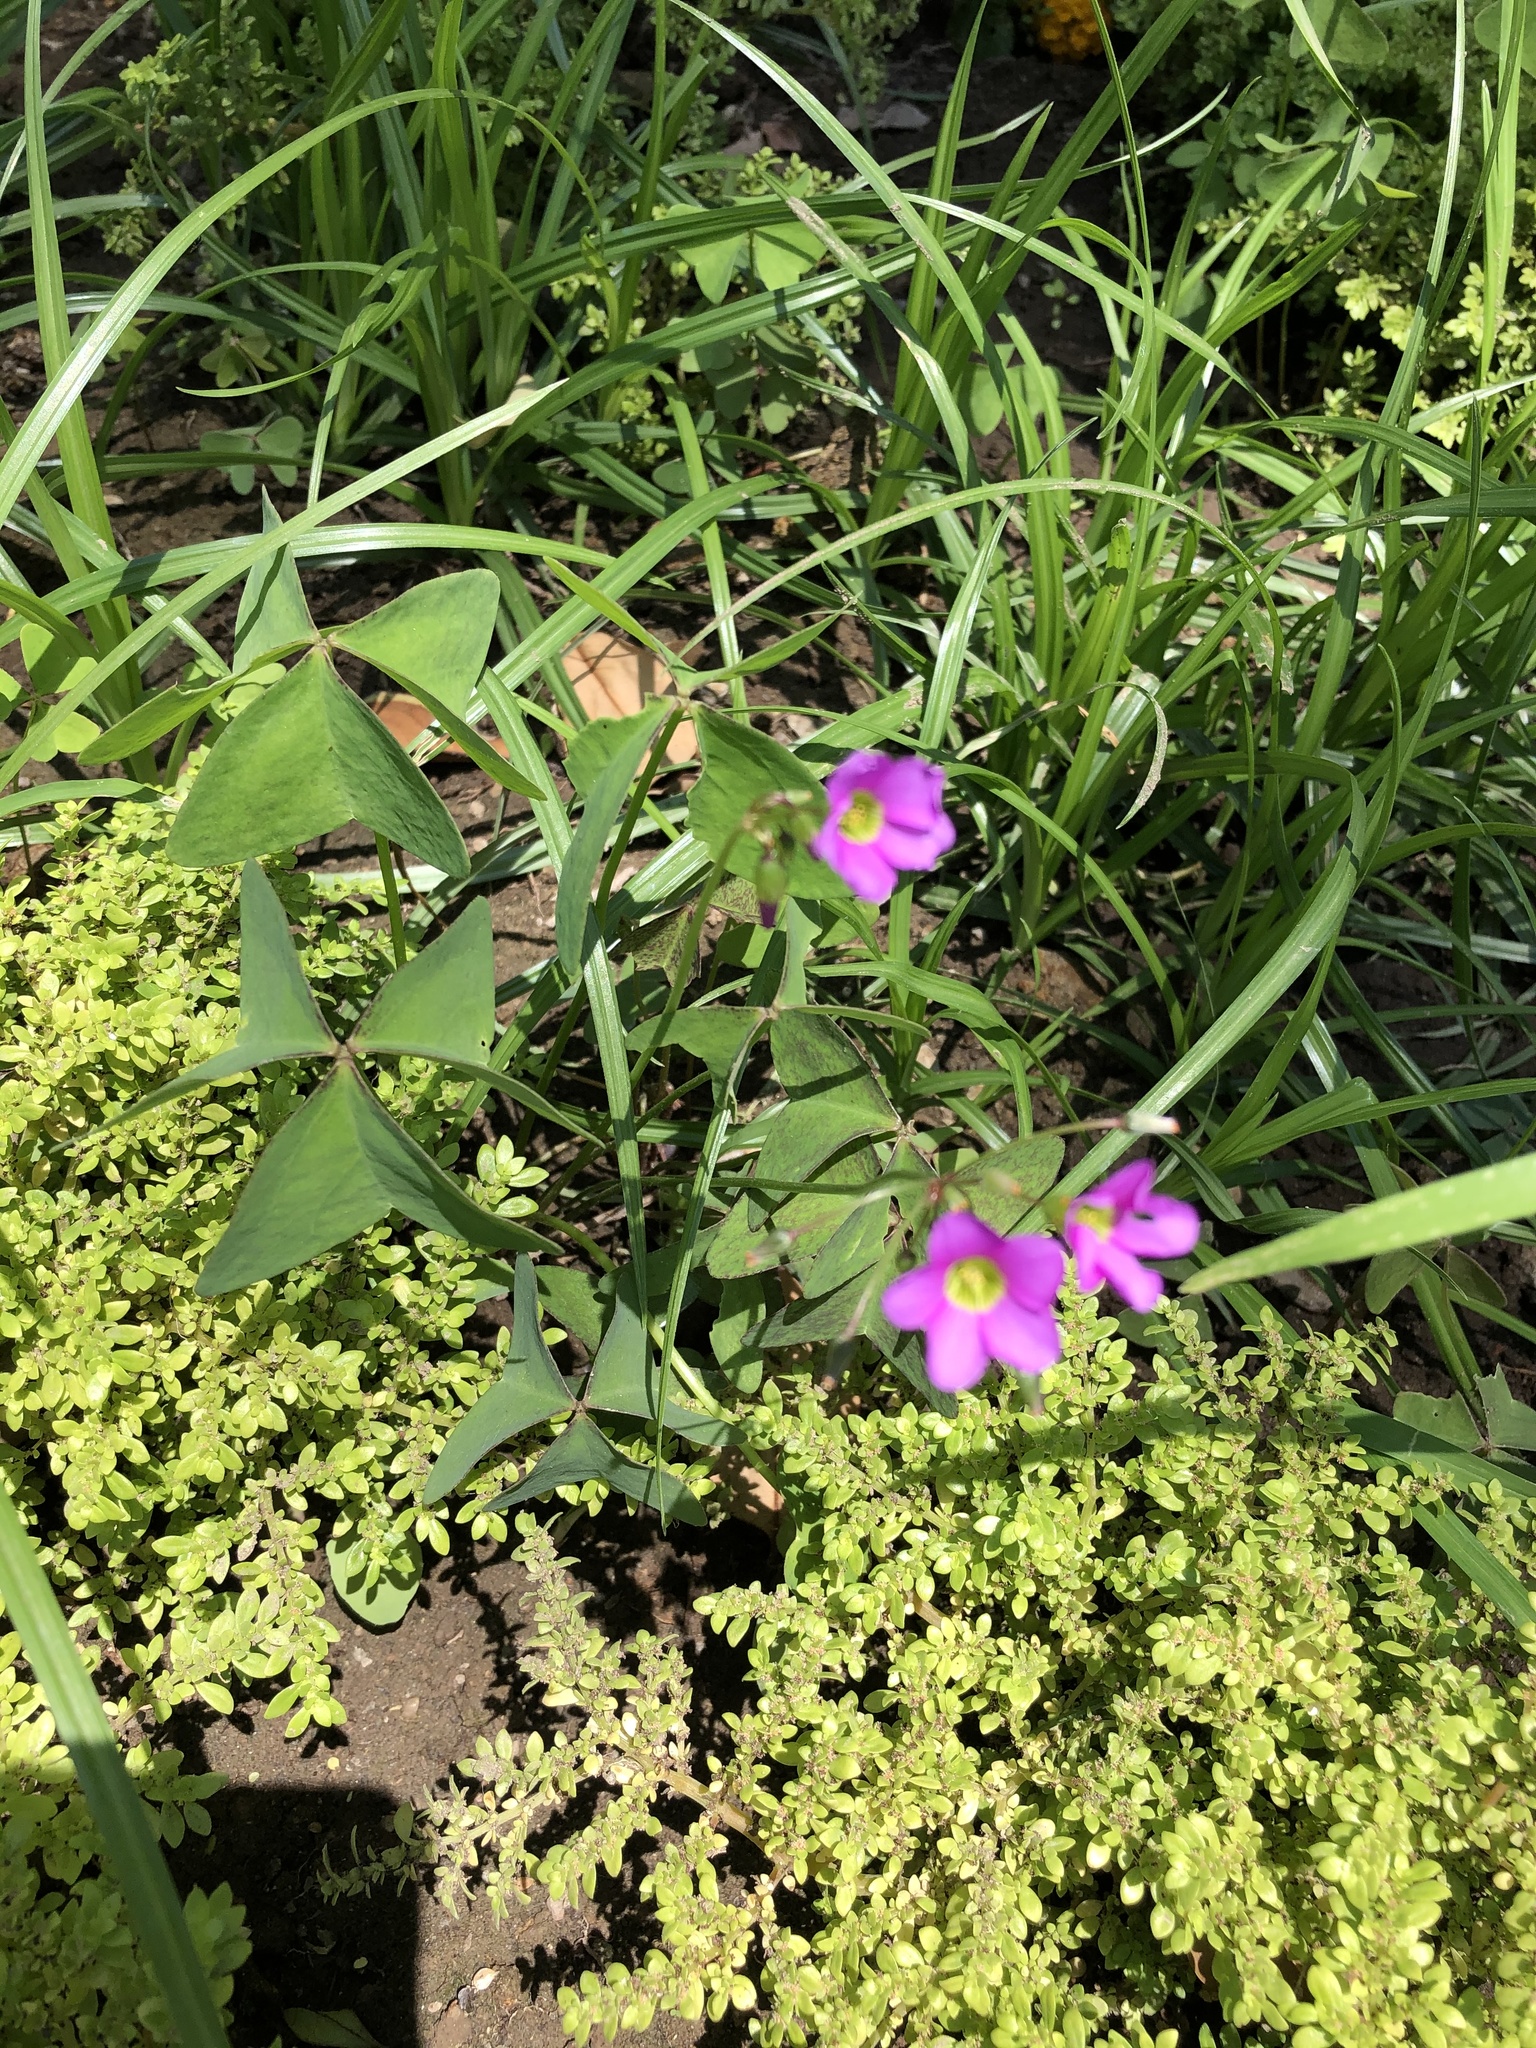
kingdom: Plantae
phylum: Tracheophyta
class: Magnoliopsida
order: Oxalidales
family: Oxalidaceae
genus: Oxalis
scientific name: Oxalis latifolia
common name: Garden pink-sorrel
